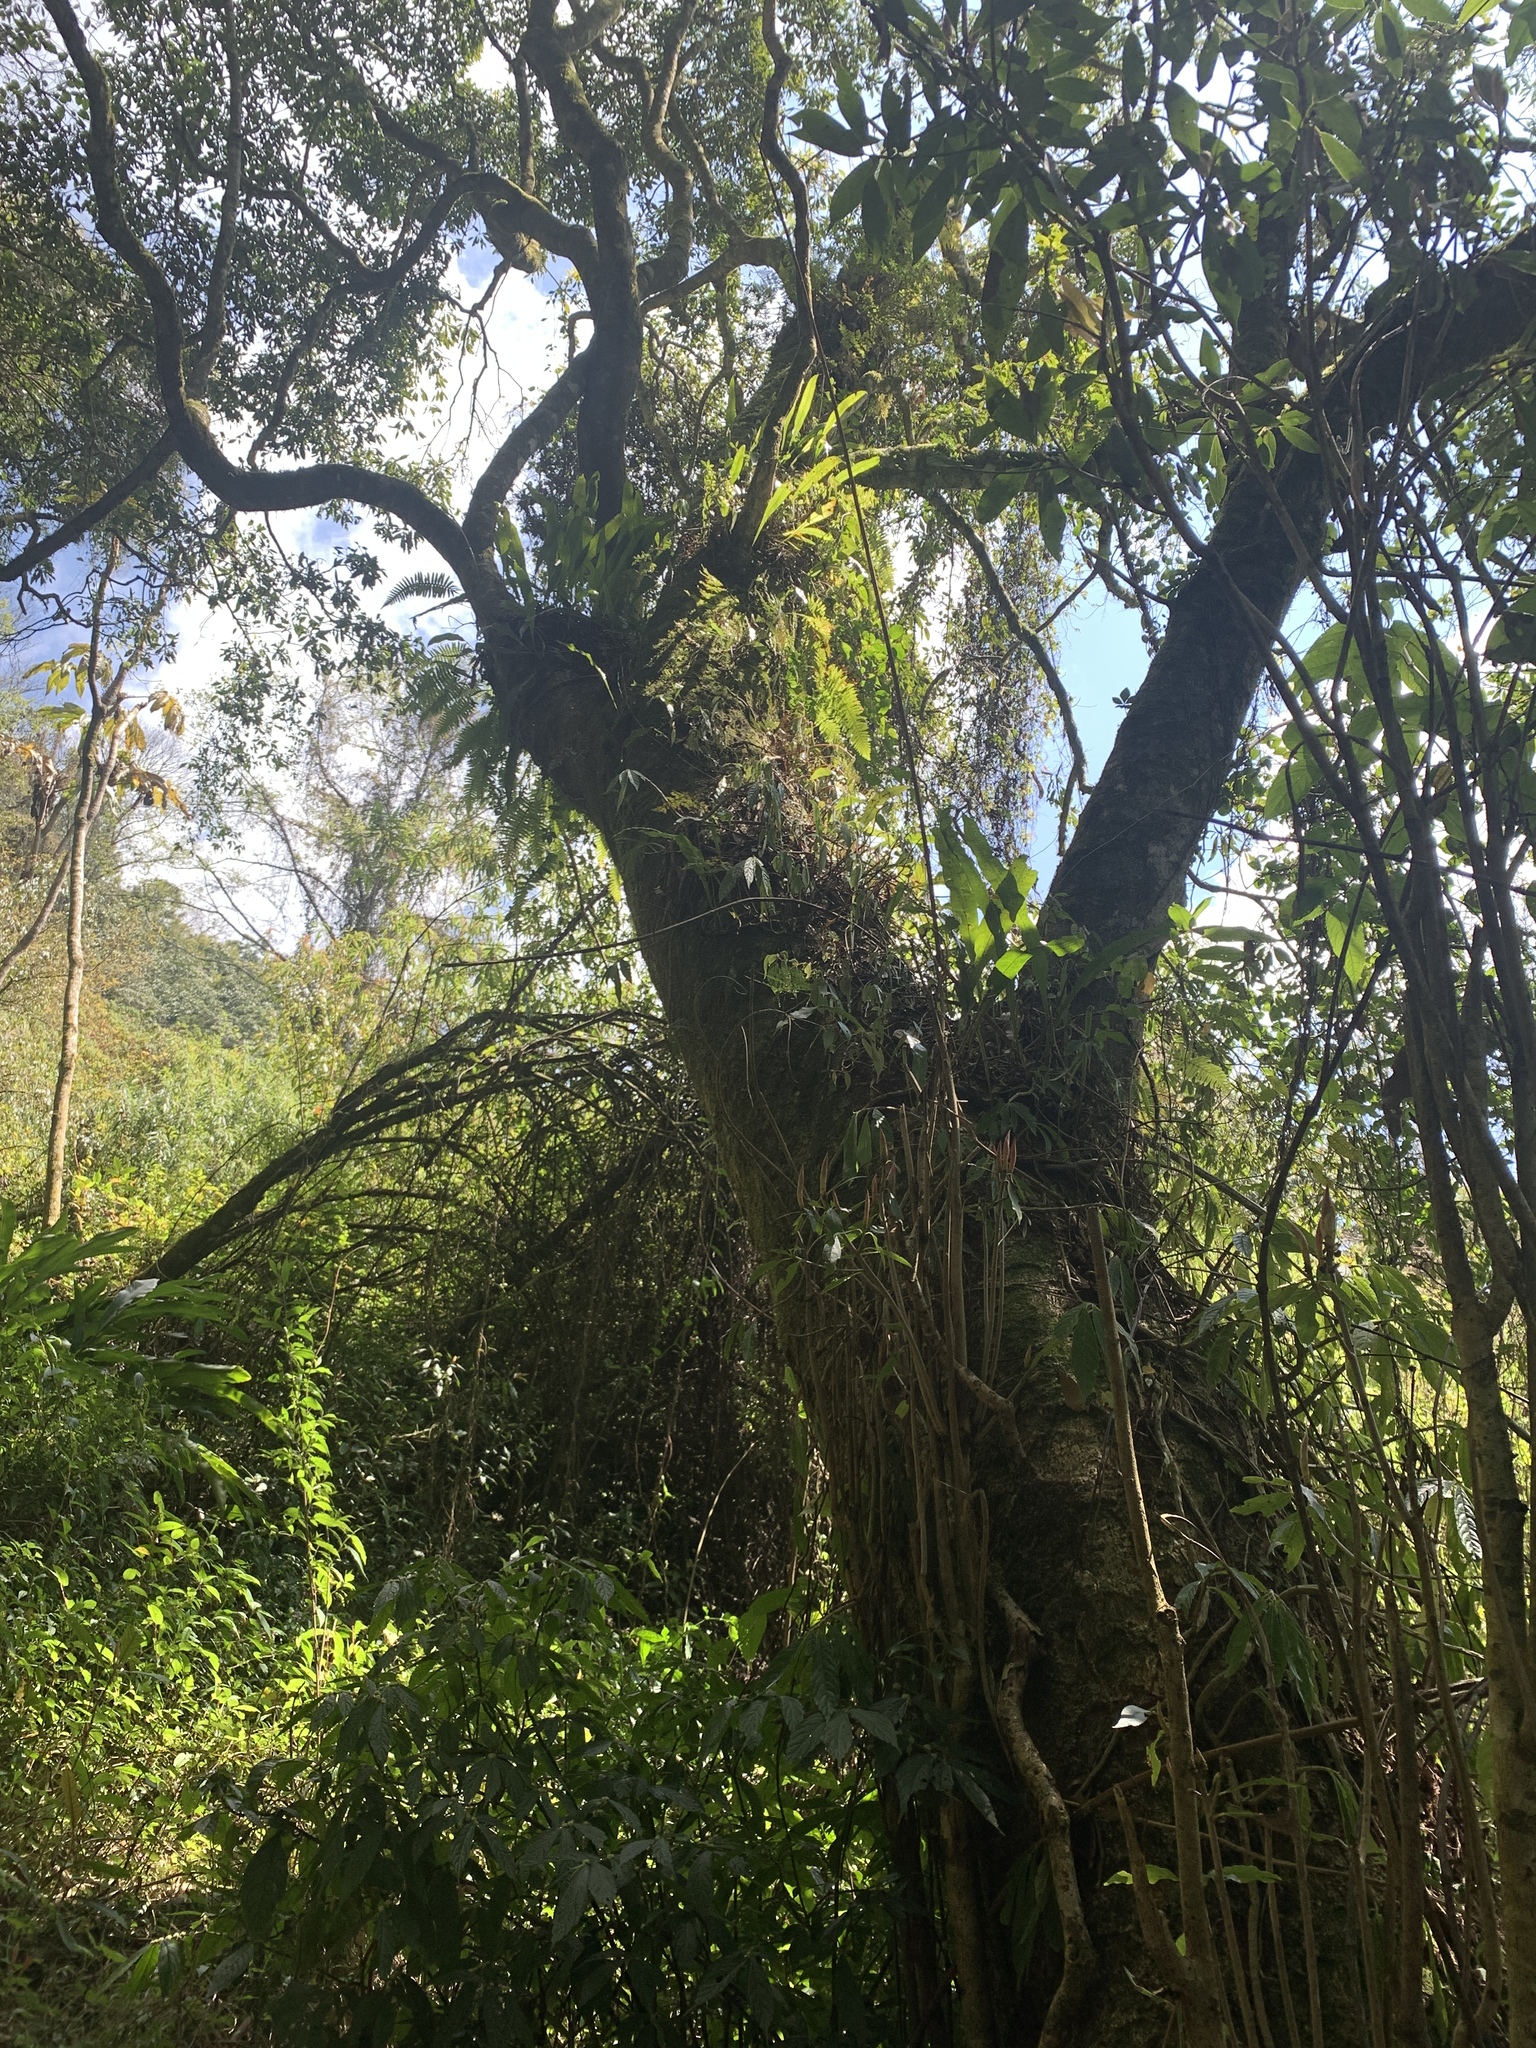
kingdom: Plantae
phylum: Tracheophyta
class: Magnoliopsida
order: Laurales
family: Lauraceae
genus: Machilus
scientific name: Machilus japonica
